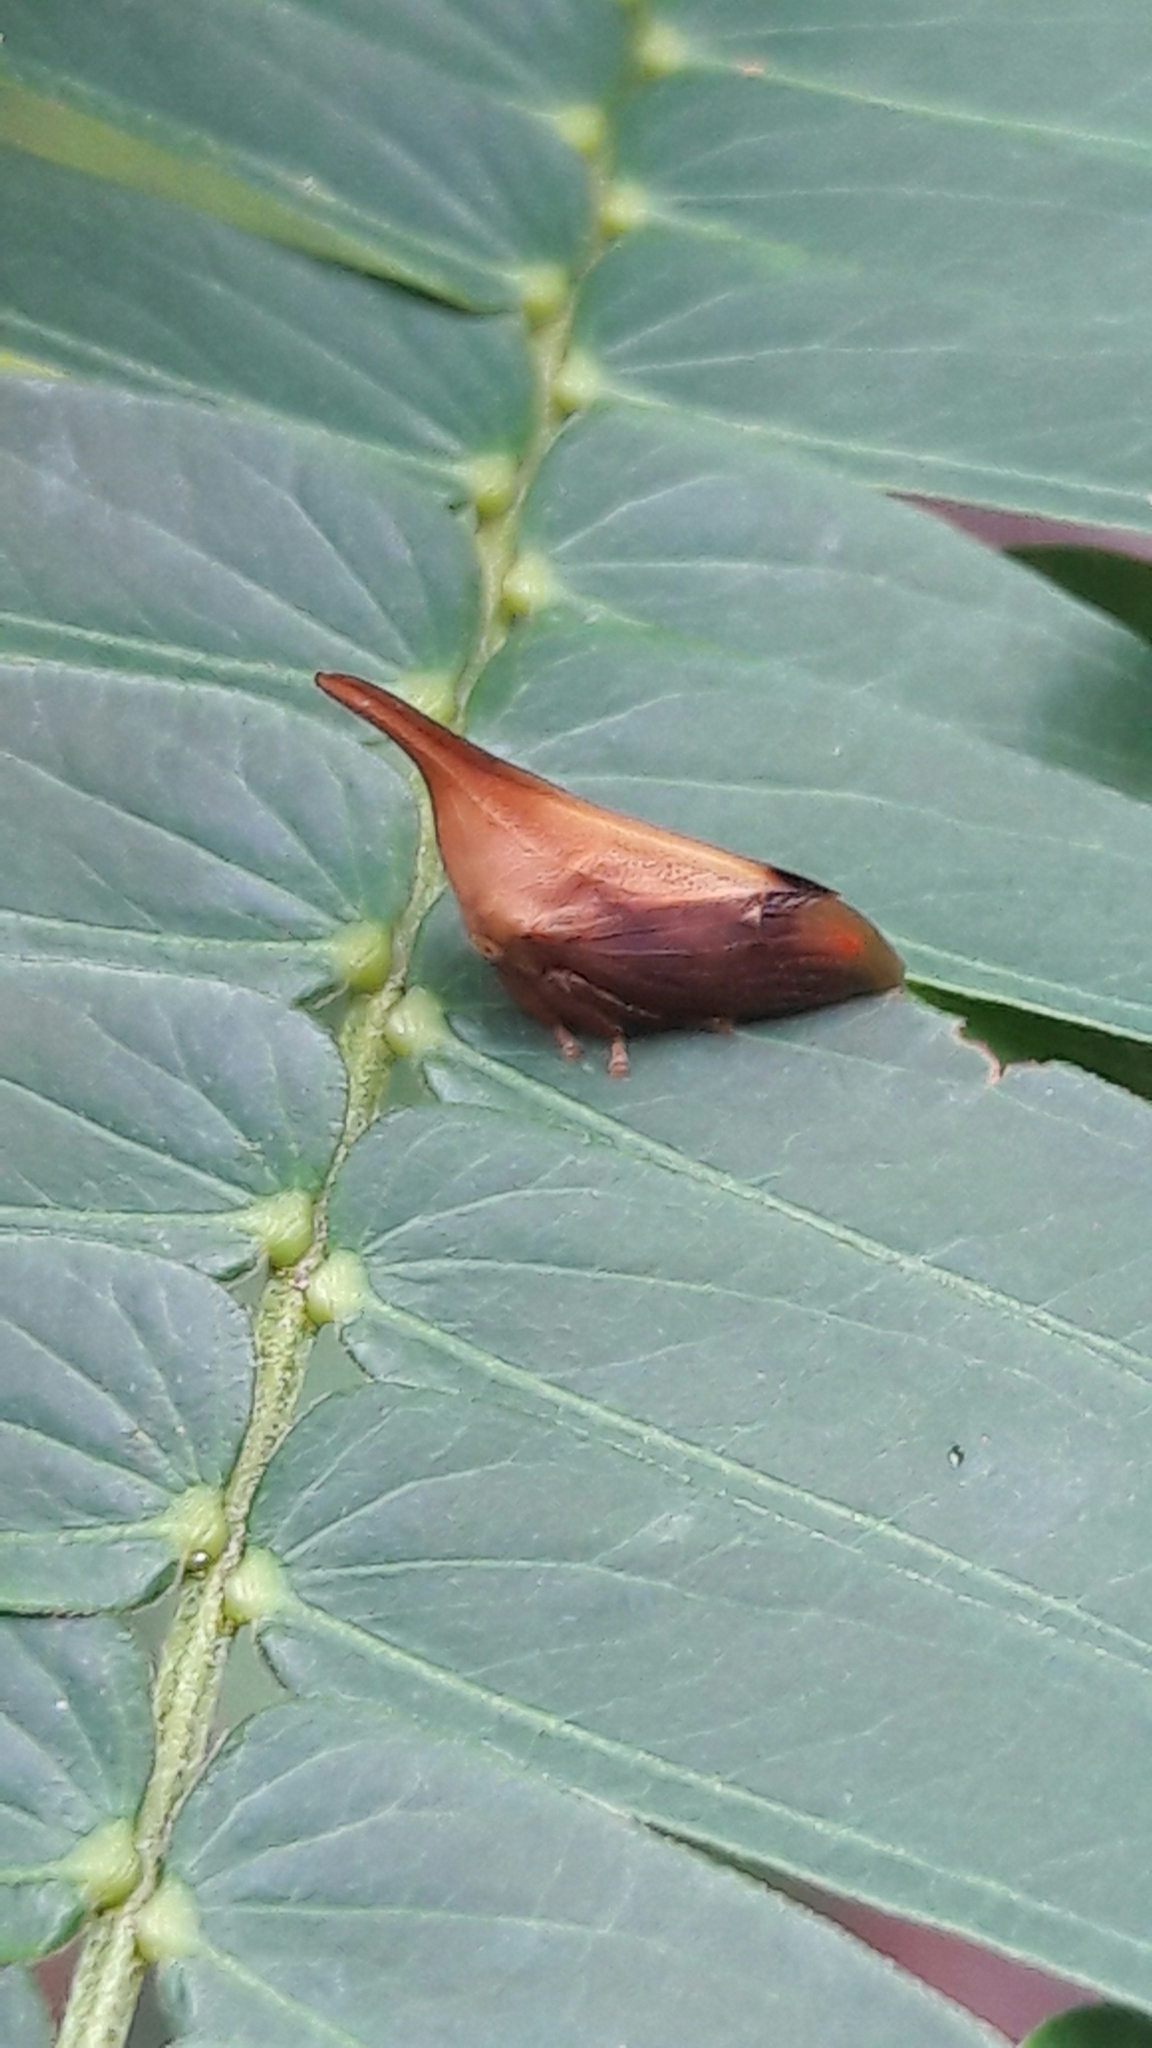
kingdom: Animalia
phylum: Arthropoda
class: Insecta
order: Hemiptera
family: Membracidae
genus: Enchenopa
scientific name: Enchenopa concolor
